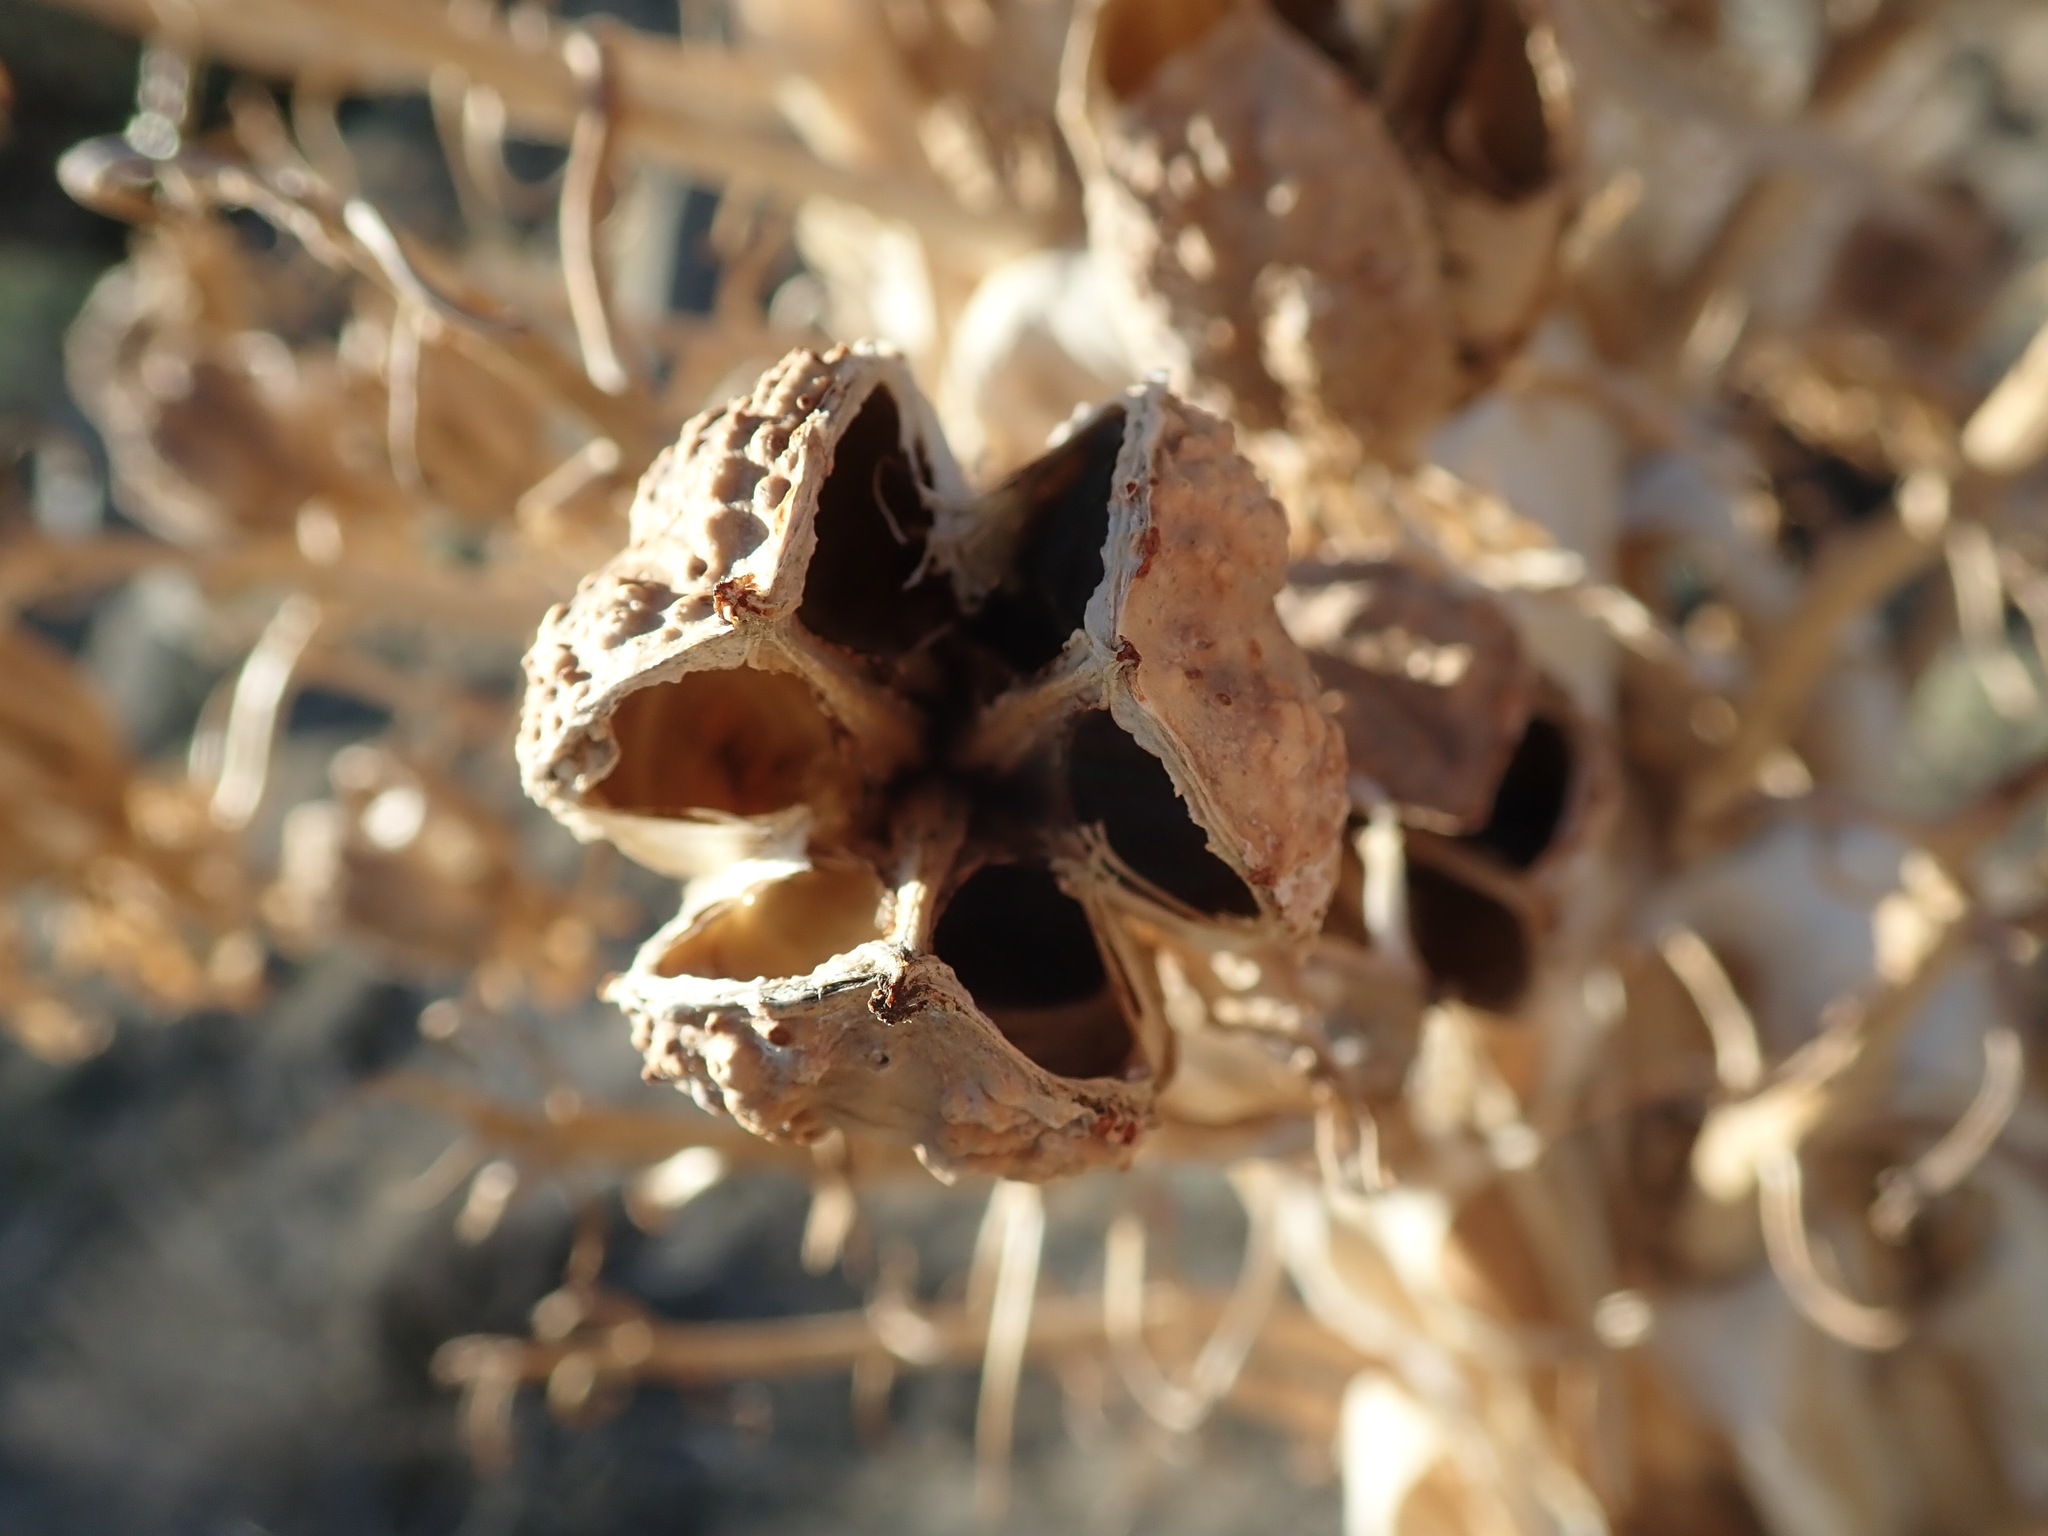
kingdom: Plantae
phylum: Tracheophyta
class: Liliopsida
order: Asparagales
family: Asparagaceae
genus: Hesperoyucca
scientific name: Hesperoyucca whipplei
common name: Our lord's-candle
